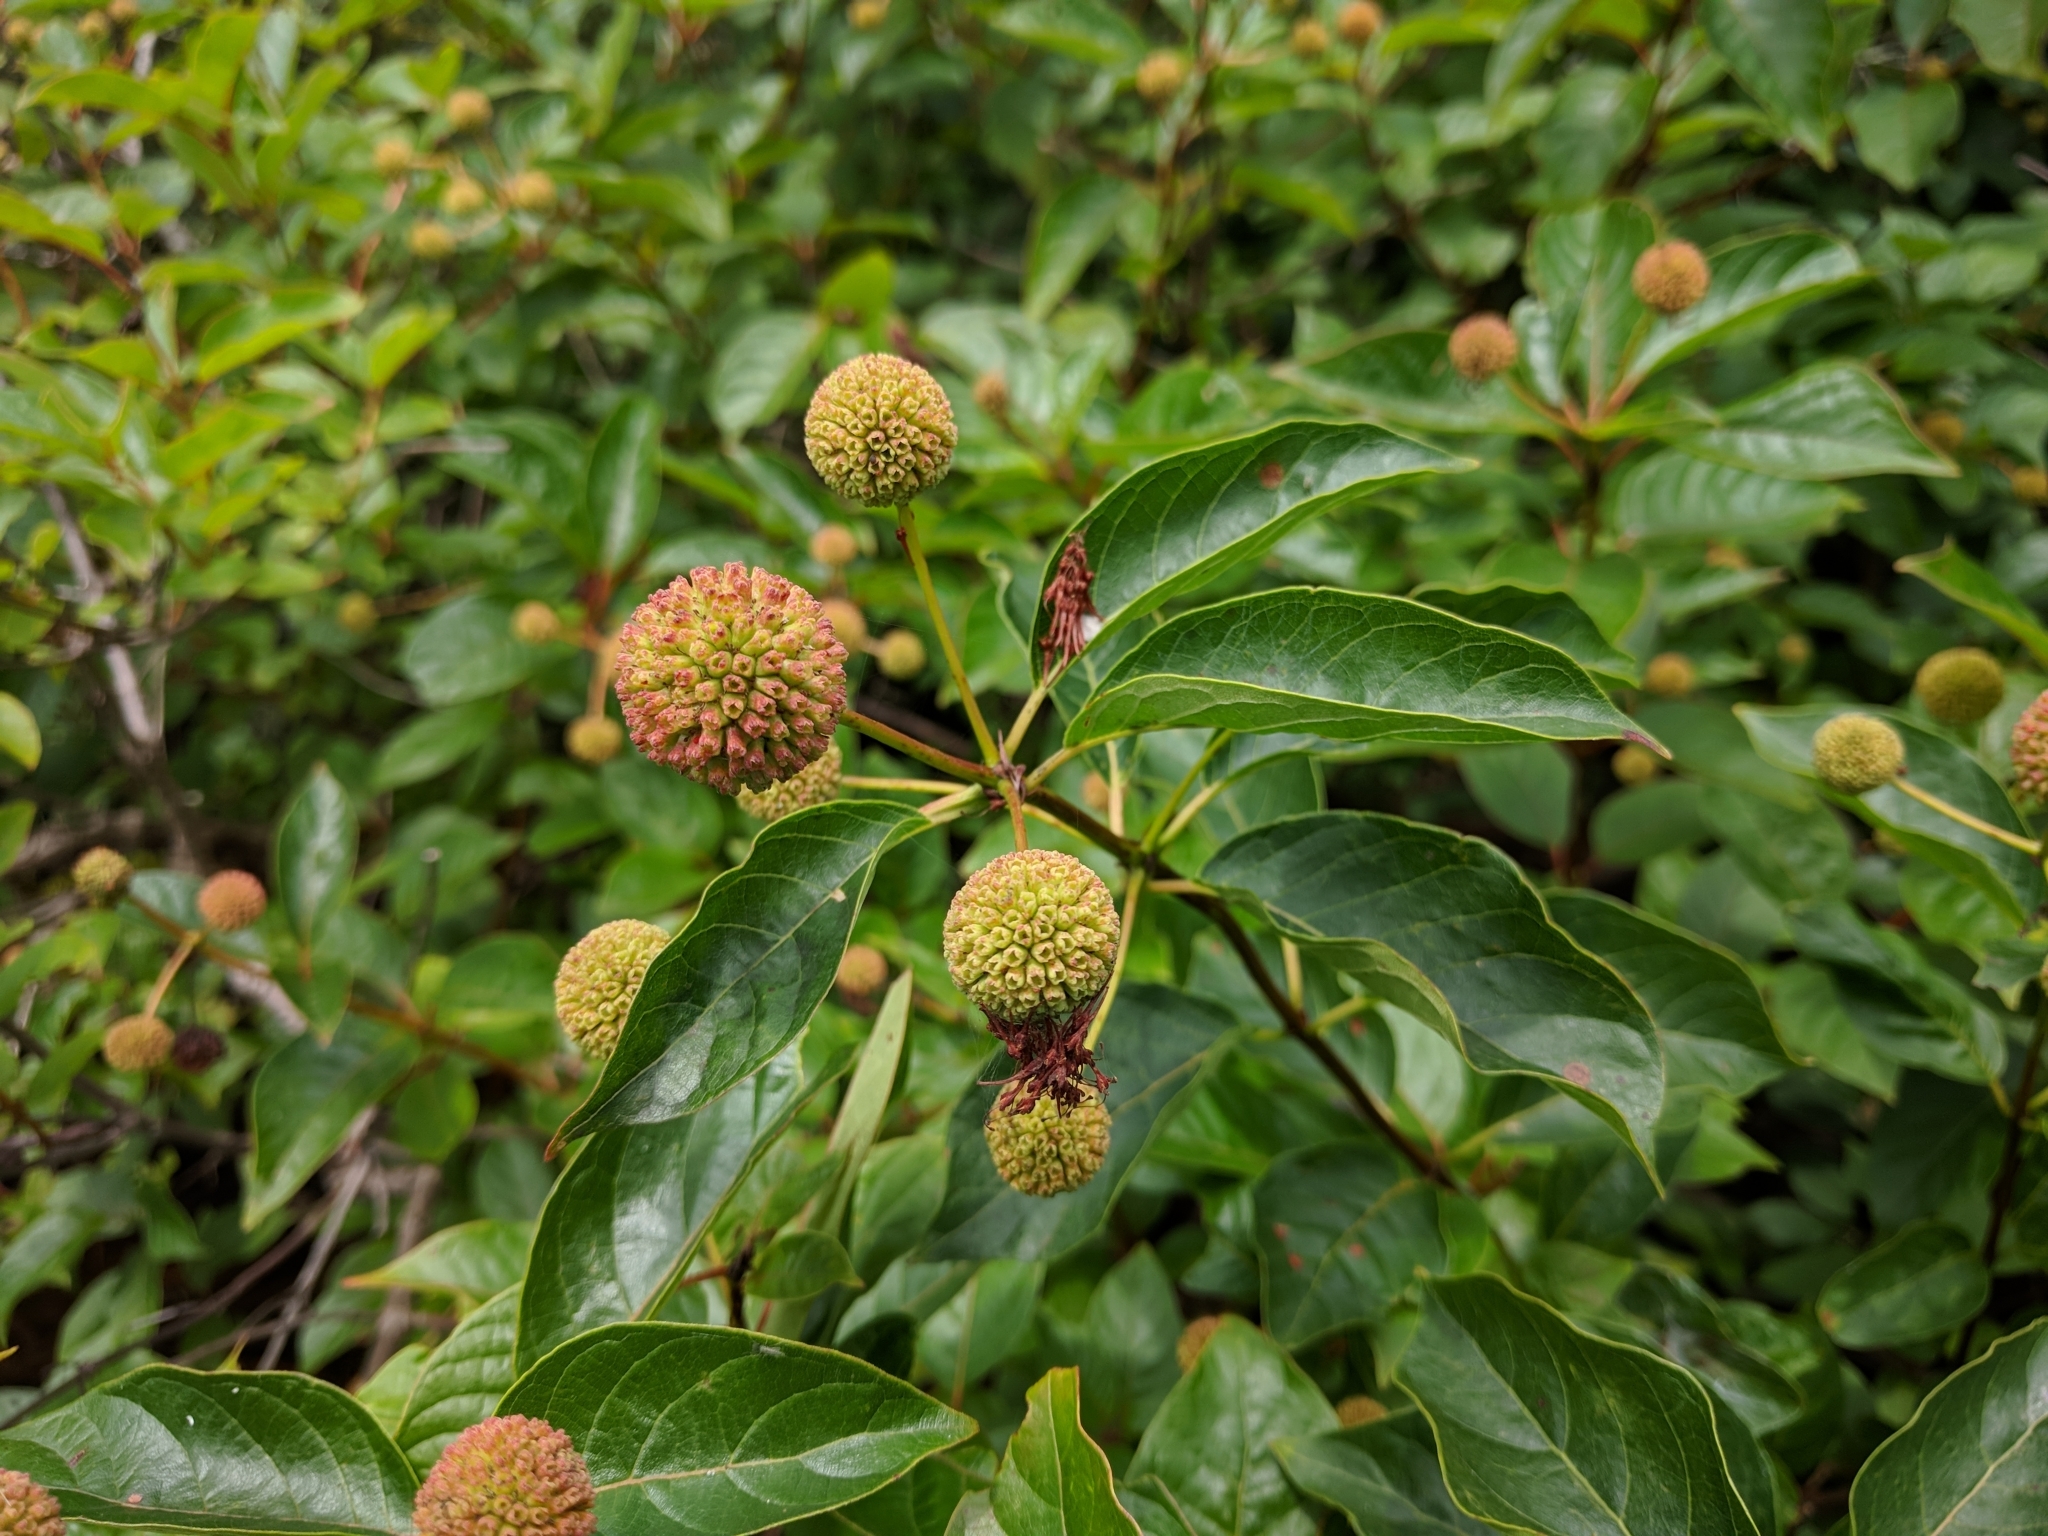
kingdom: Plantae
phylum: Tracheophyta
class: Magnoliopsida
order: Gentianales
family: Rubiaceae
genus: Cephalanthus
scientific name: Cephalanthus occidentalis
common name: Button-willow
